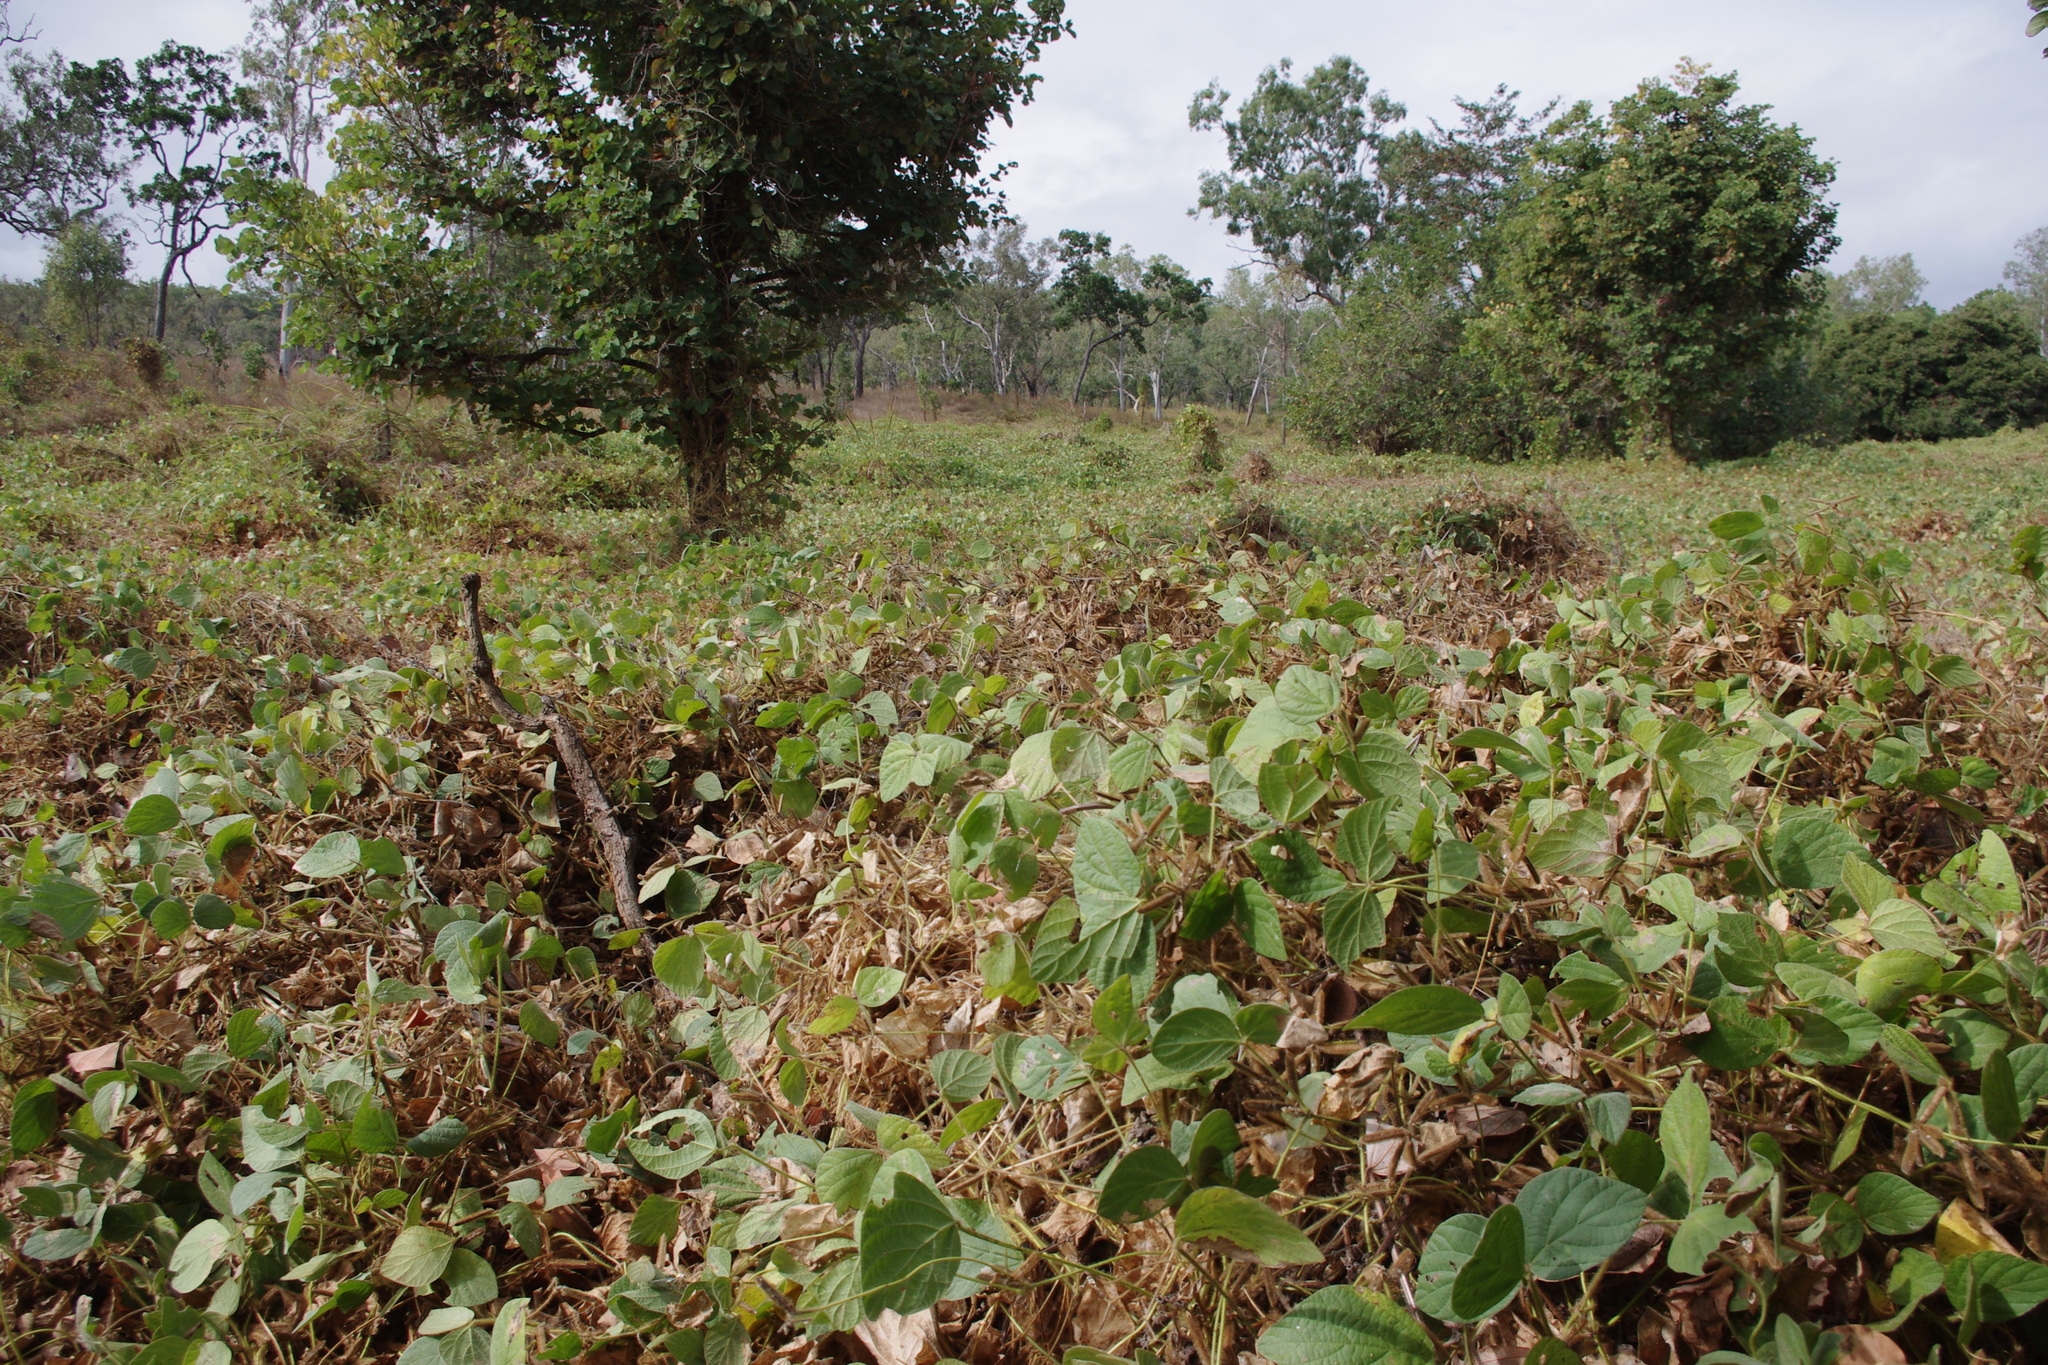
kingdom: Plantae
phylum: Tracheophyta
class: Magnoliopsida
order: Fabales
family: Fabaceae
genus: Piliostigma
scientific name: Piliostigma malabaricum
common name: Malabar bauhinia
